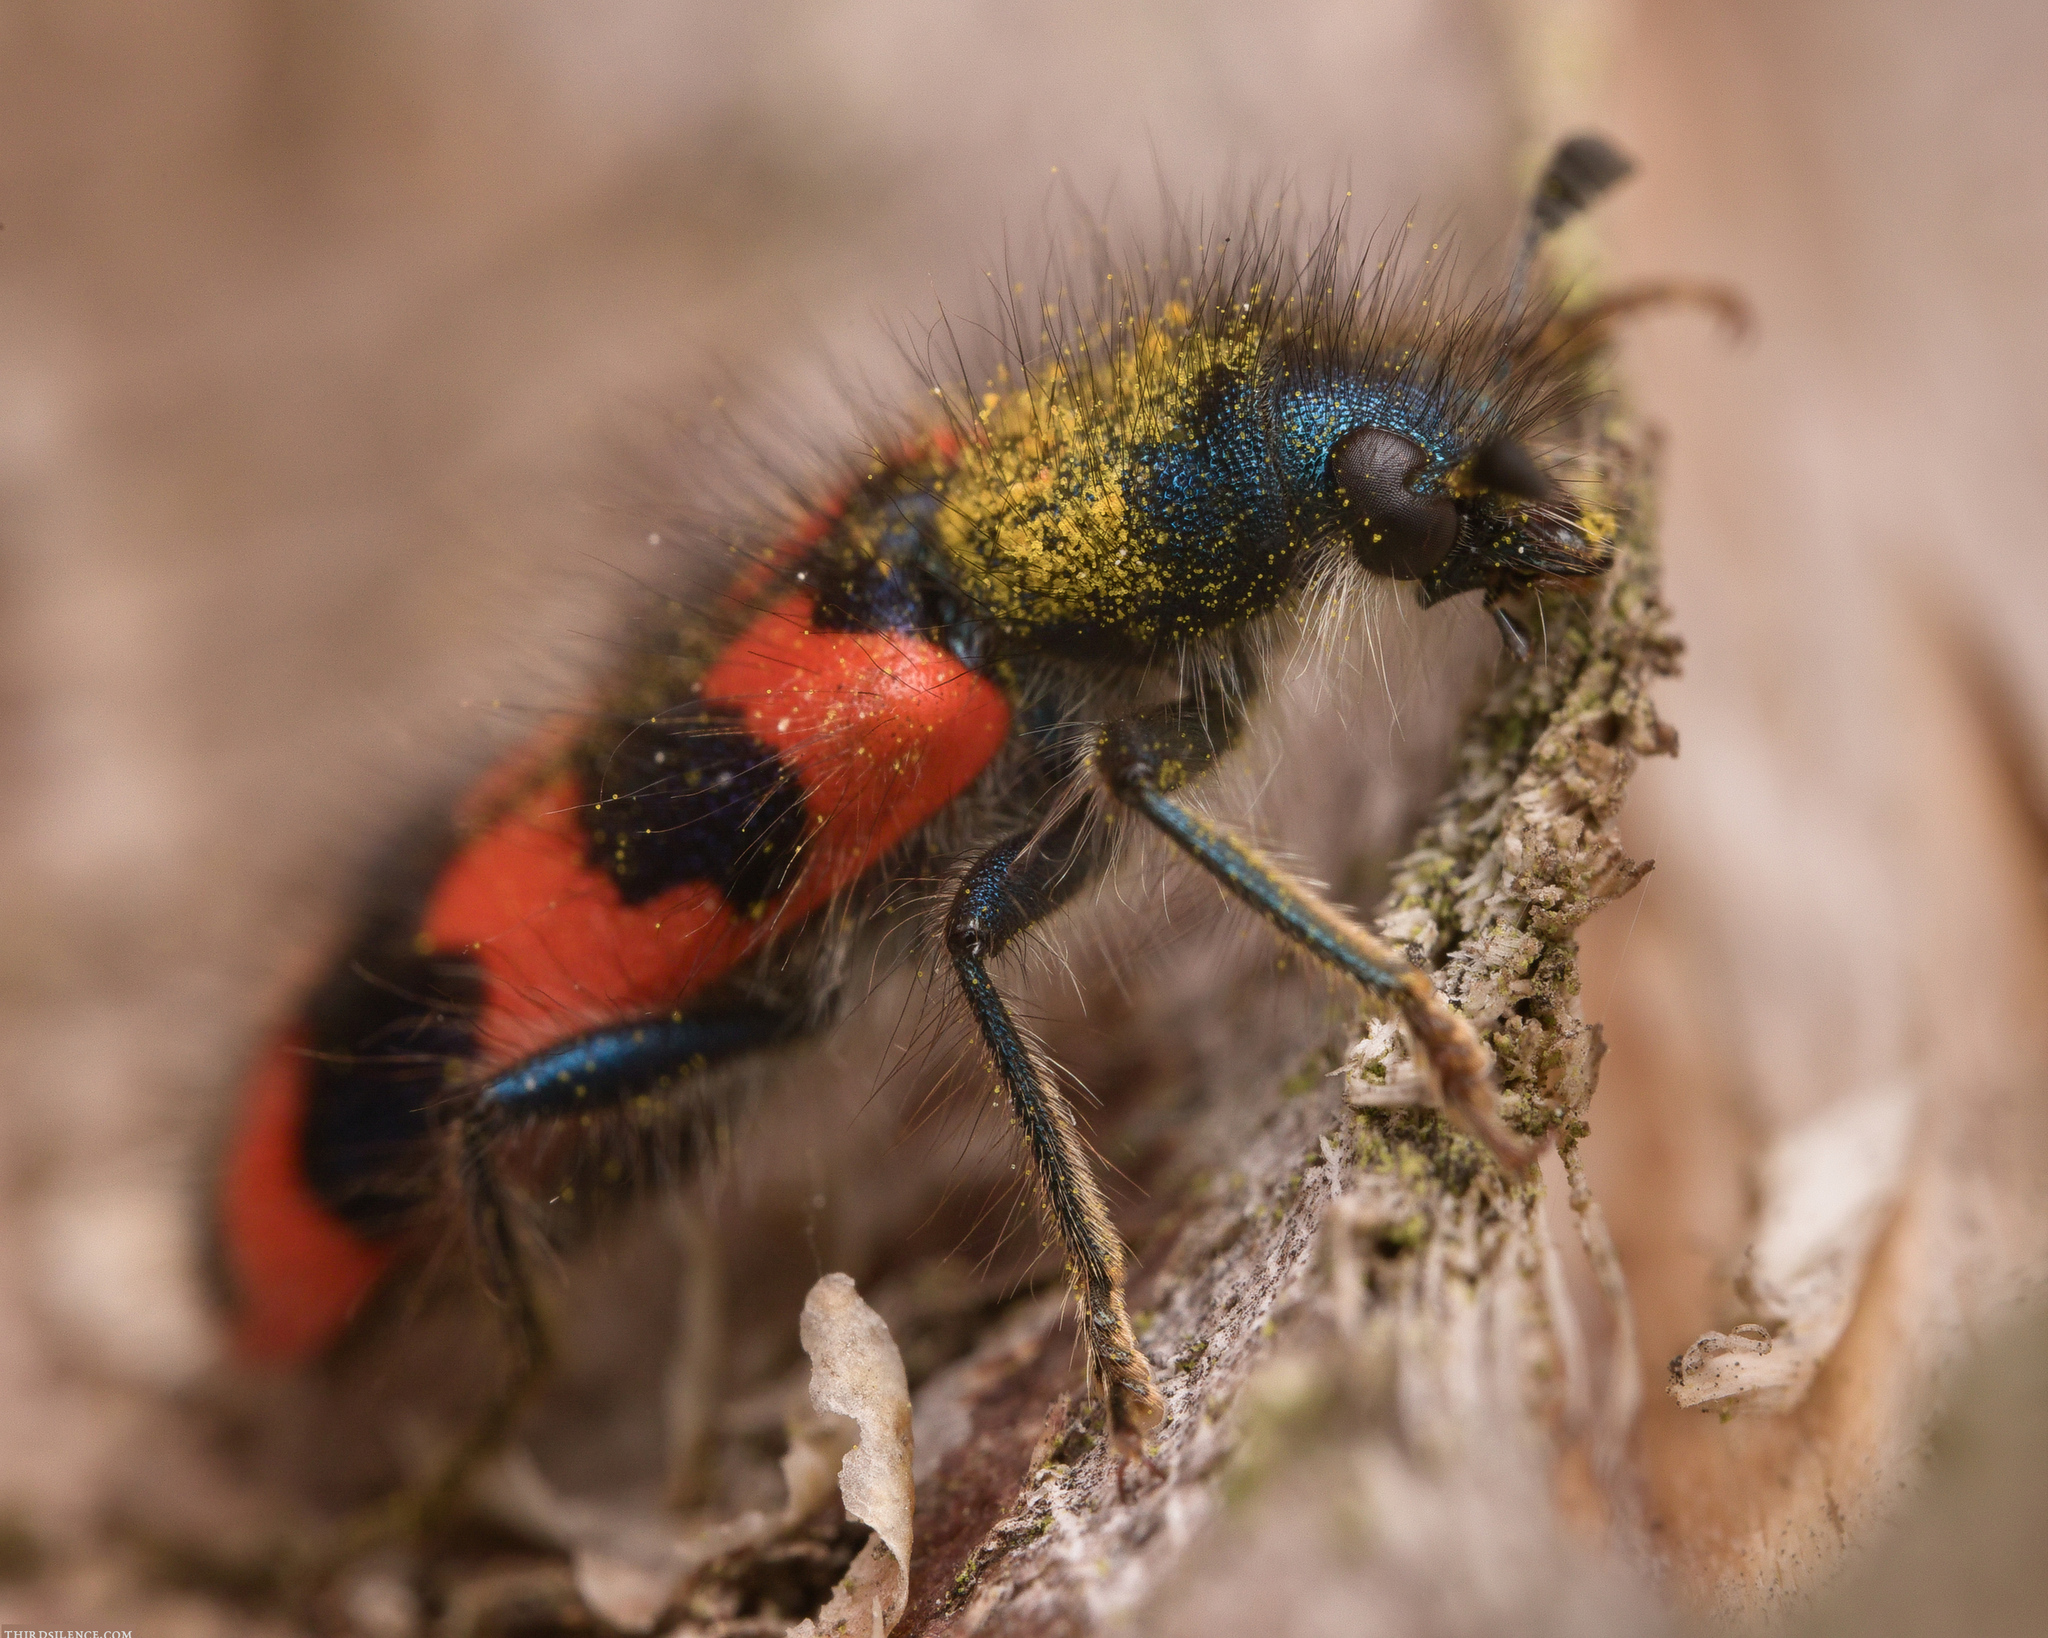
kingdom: Animalia
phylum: Arthropoda
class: Insecta
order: Coleoptera
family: Cleridae
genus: Trichodes
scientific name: Trichodes alvearius
